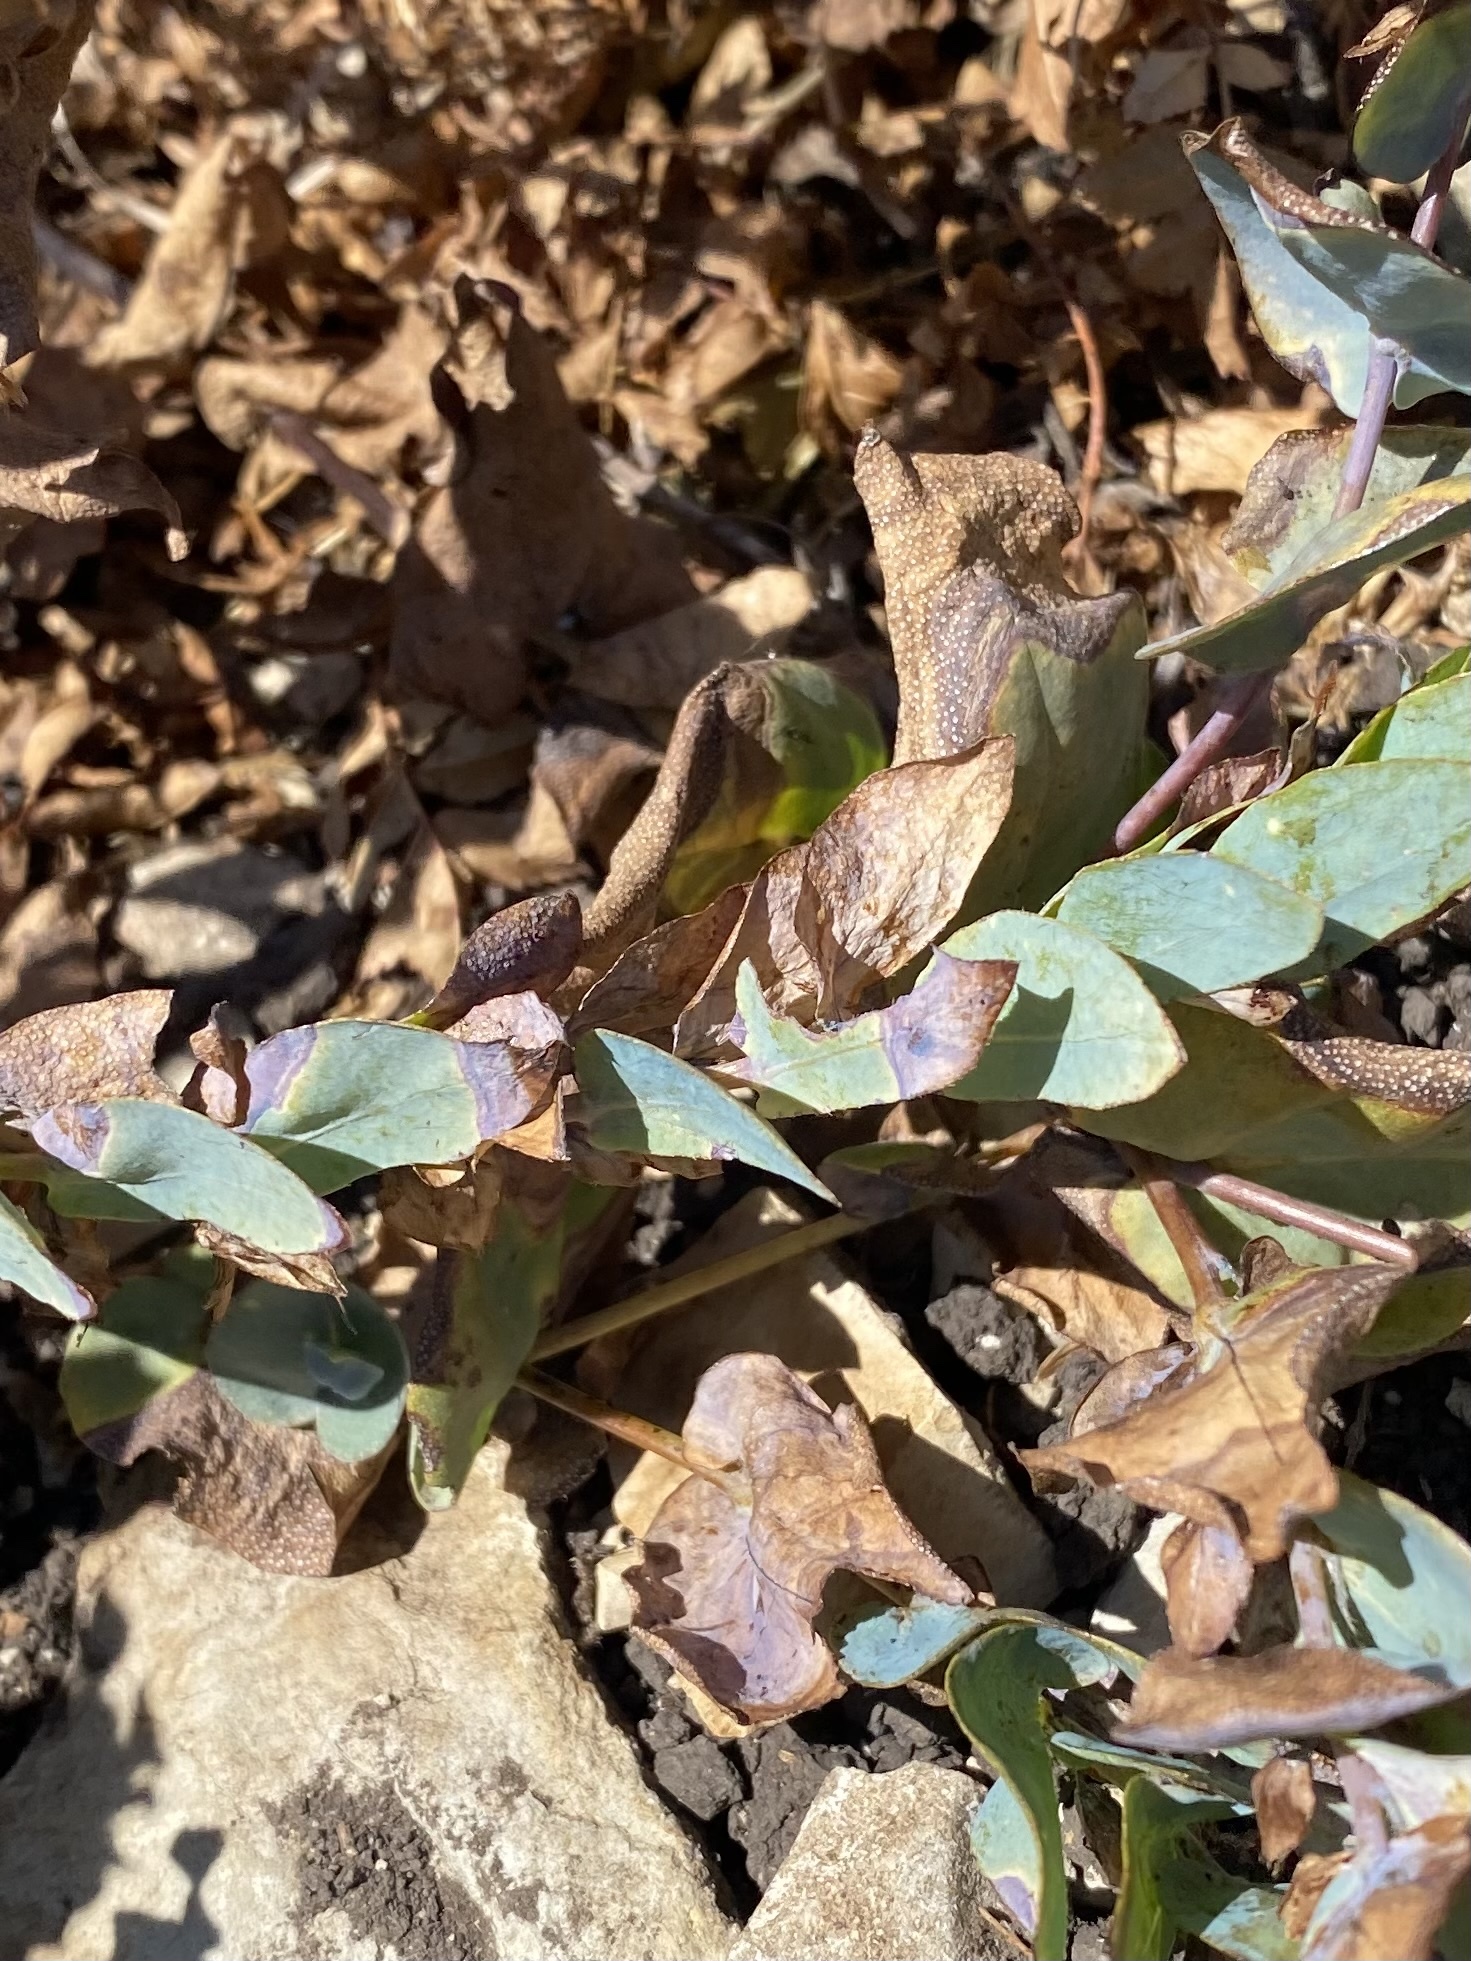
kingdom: Plantae
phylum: Tracheophyta
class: Magnoliopsida
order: Boraginales
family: Boraginaceae
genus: Cerinthe
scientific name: Cerinthe minor
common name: Lesser honeywort
